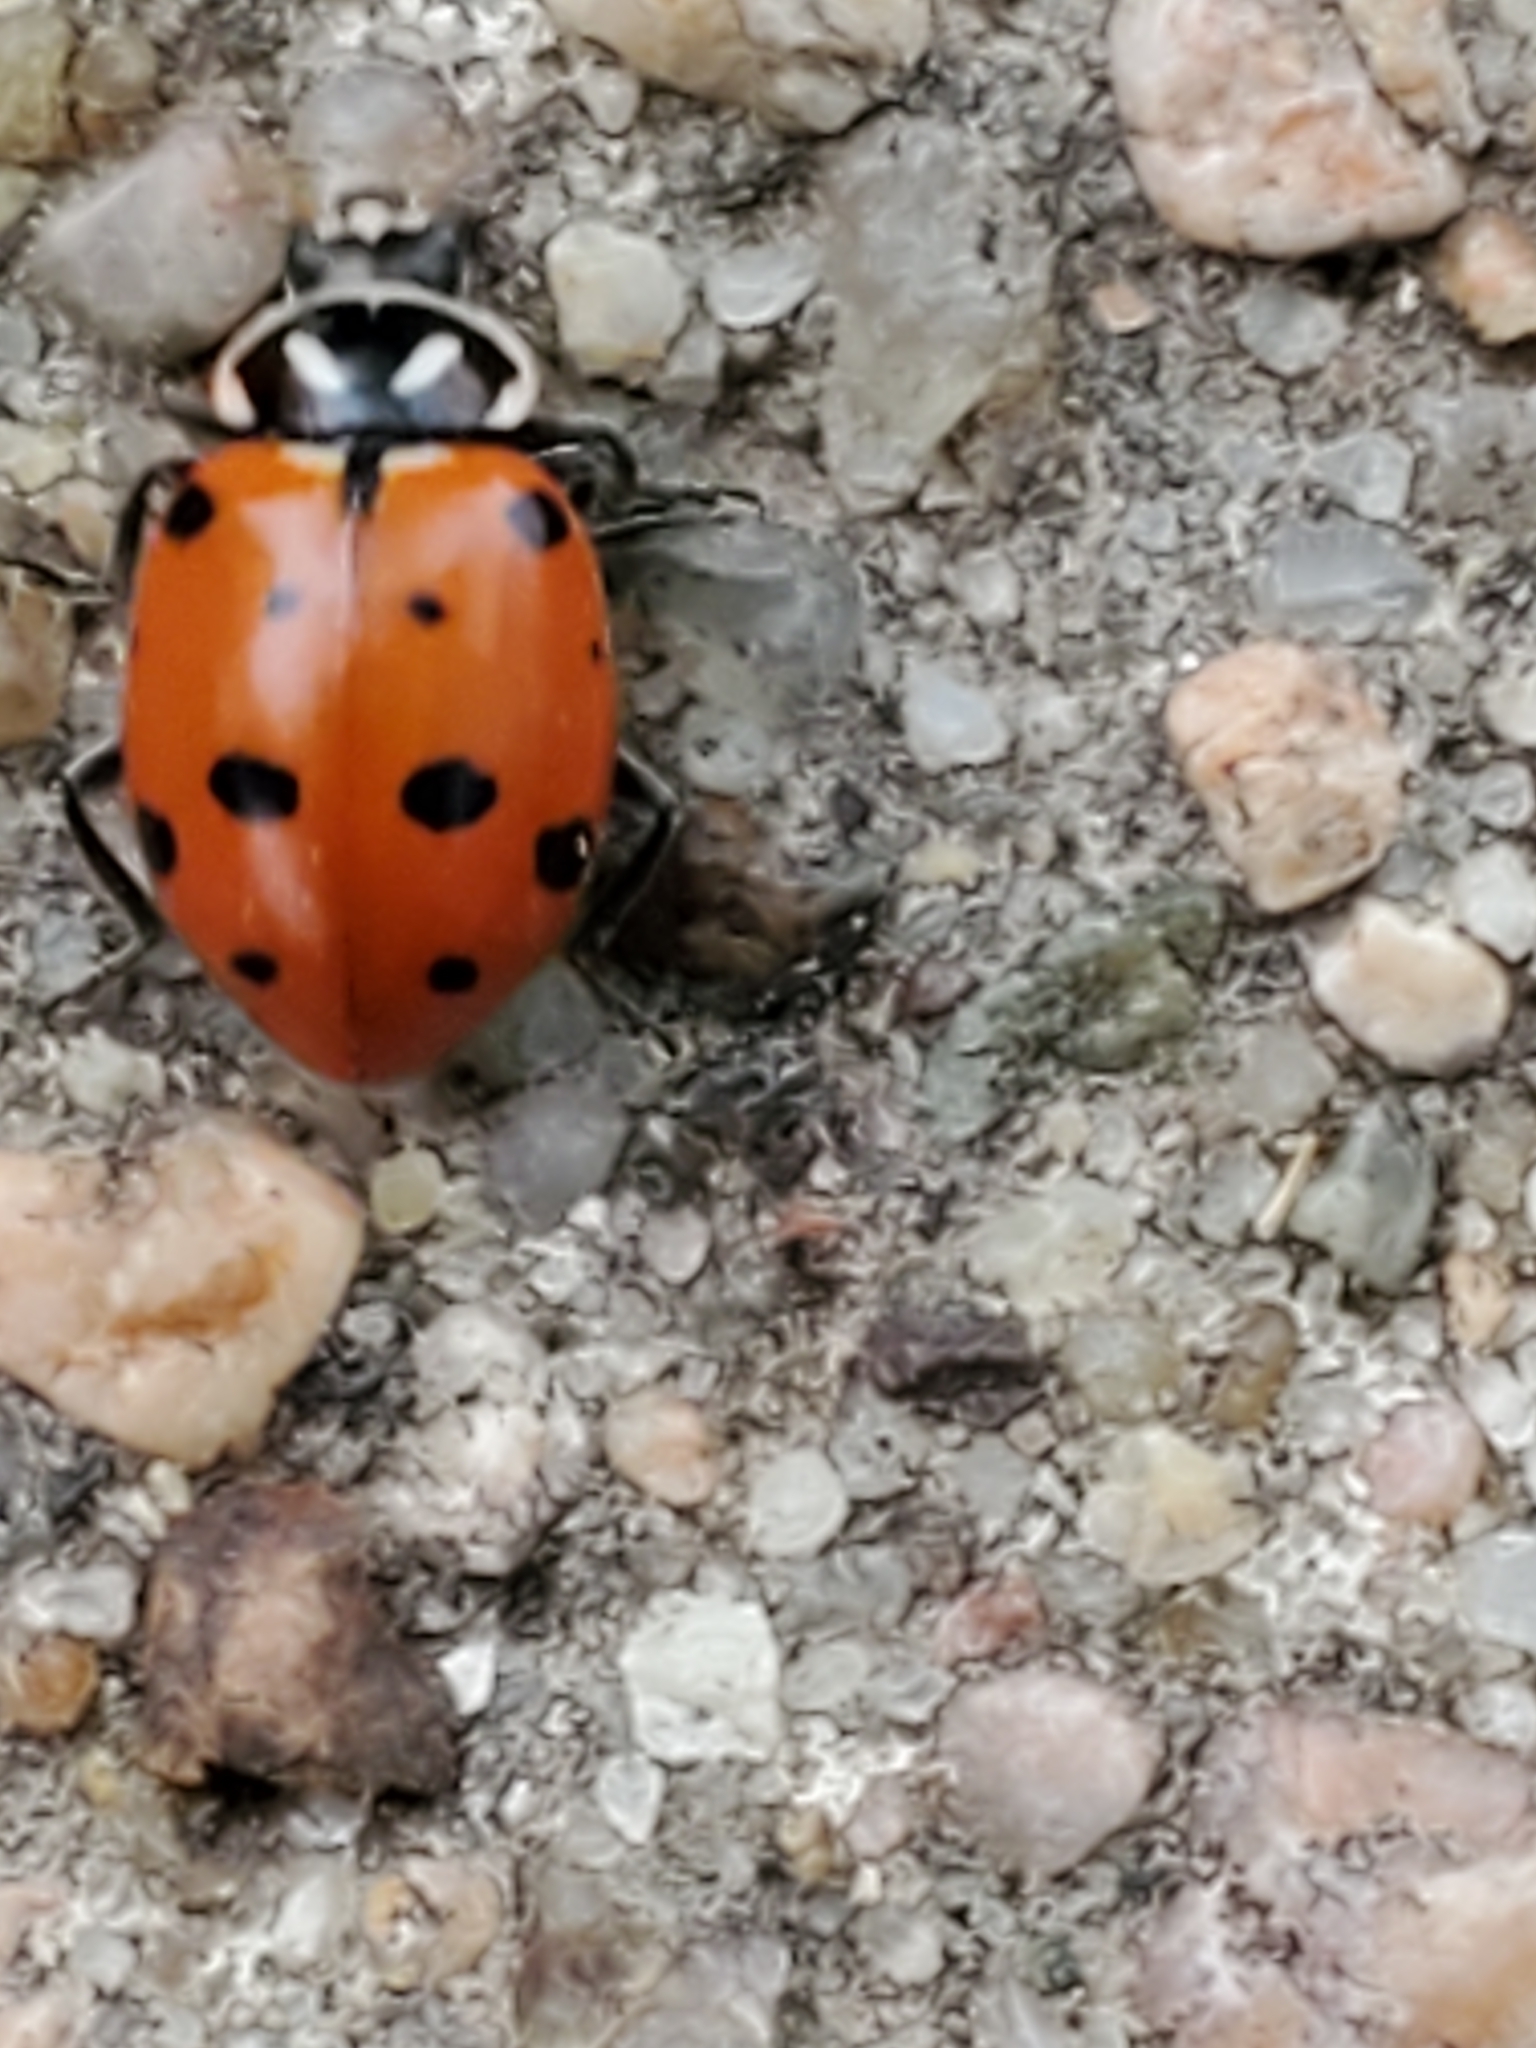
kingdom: Animalia
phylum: Arthropoda
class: Insecta
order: Coleoptera
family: Coccinellidae
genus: Hippodamia
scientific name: Hippodamia convergens
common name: Convergent lady beetle
